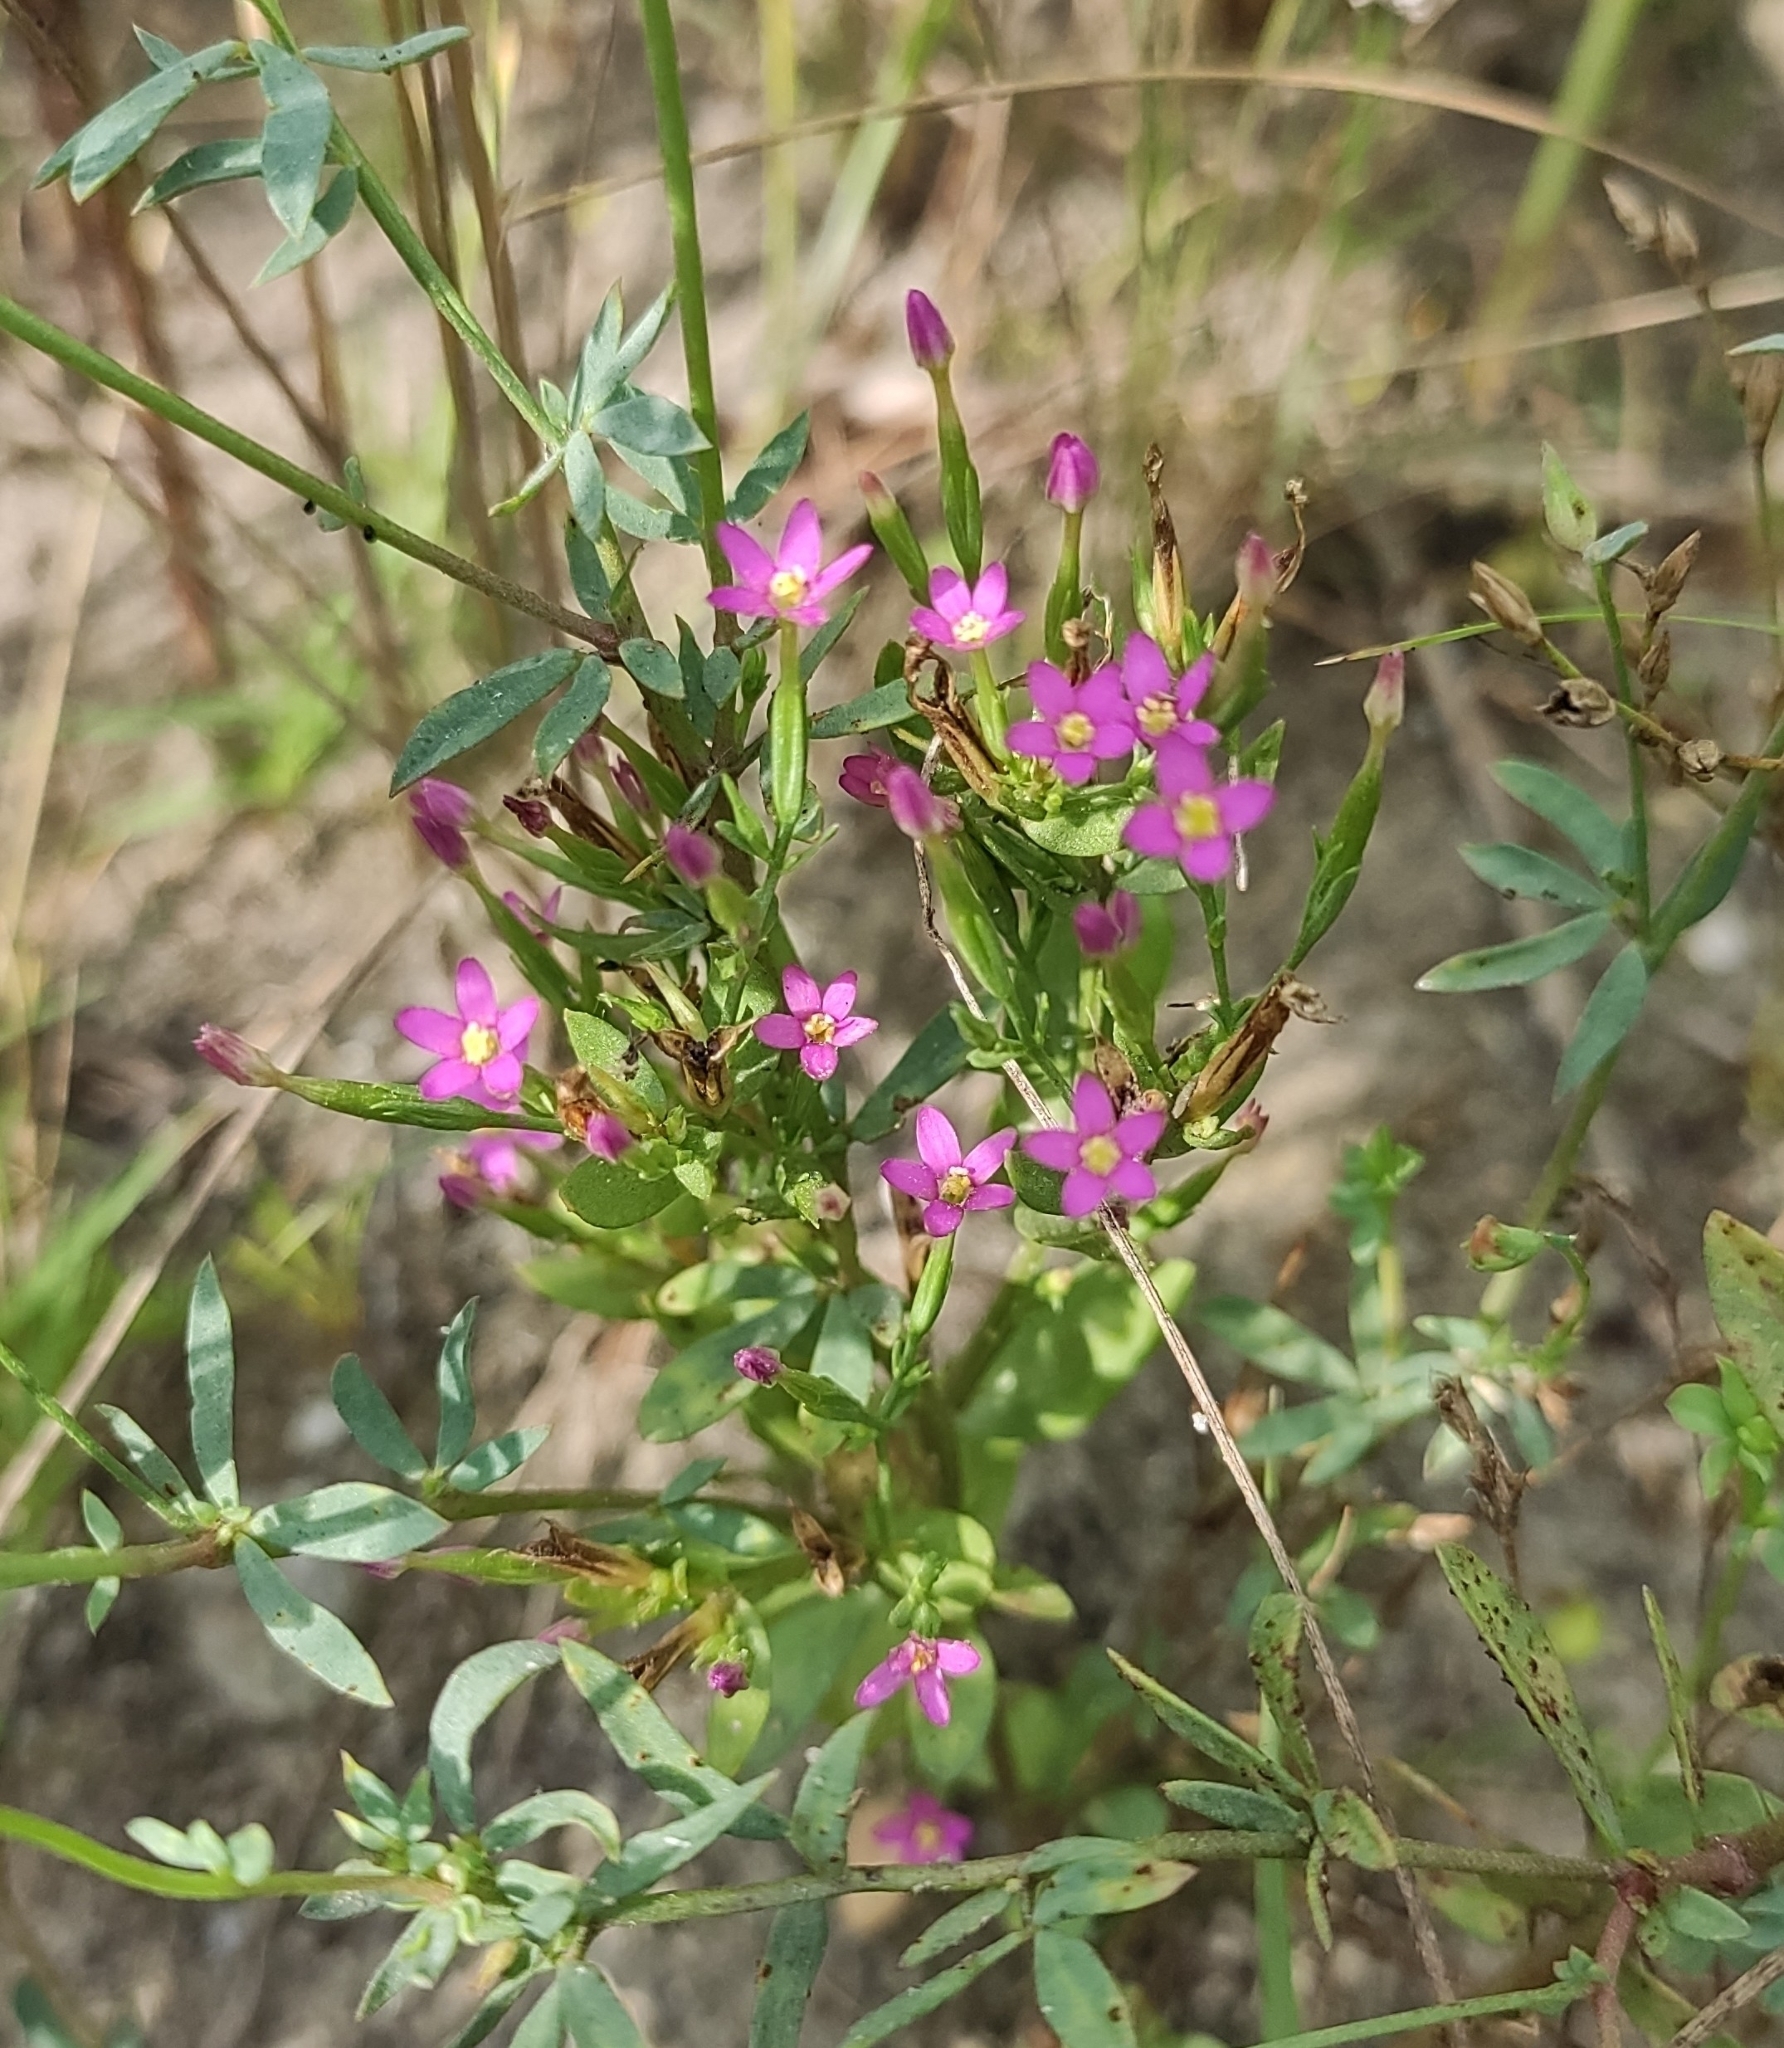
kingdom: Plantae
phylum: Tracheophyta
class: Magnoliopsida
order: Gentianales
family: Gentianaceae
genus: Centaurium
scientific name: Centaurium pulchellum
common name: Lesser centaury
